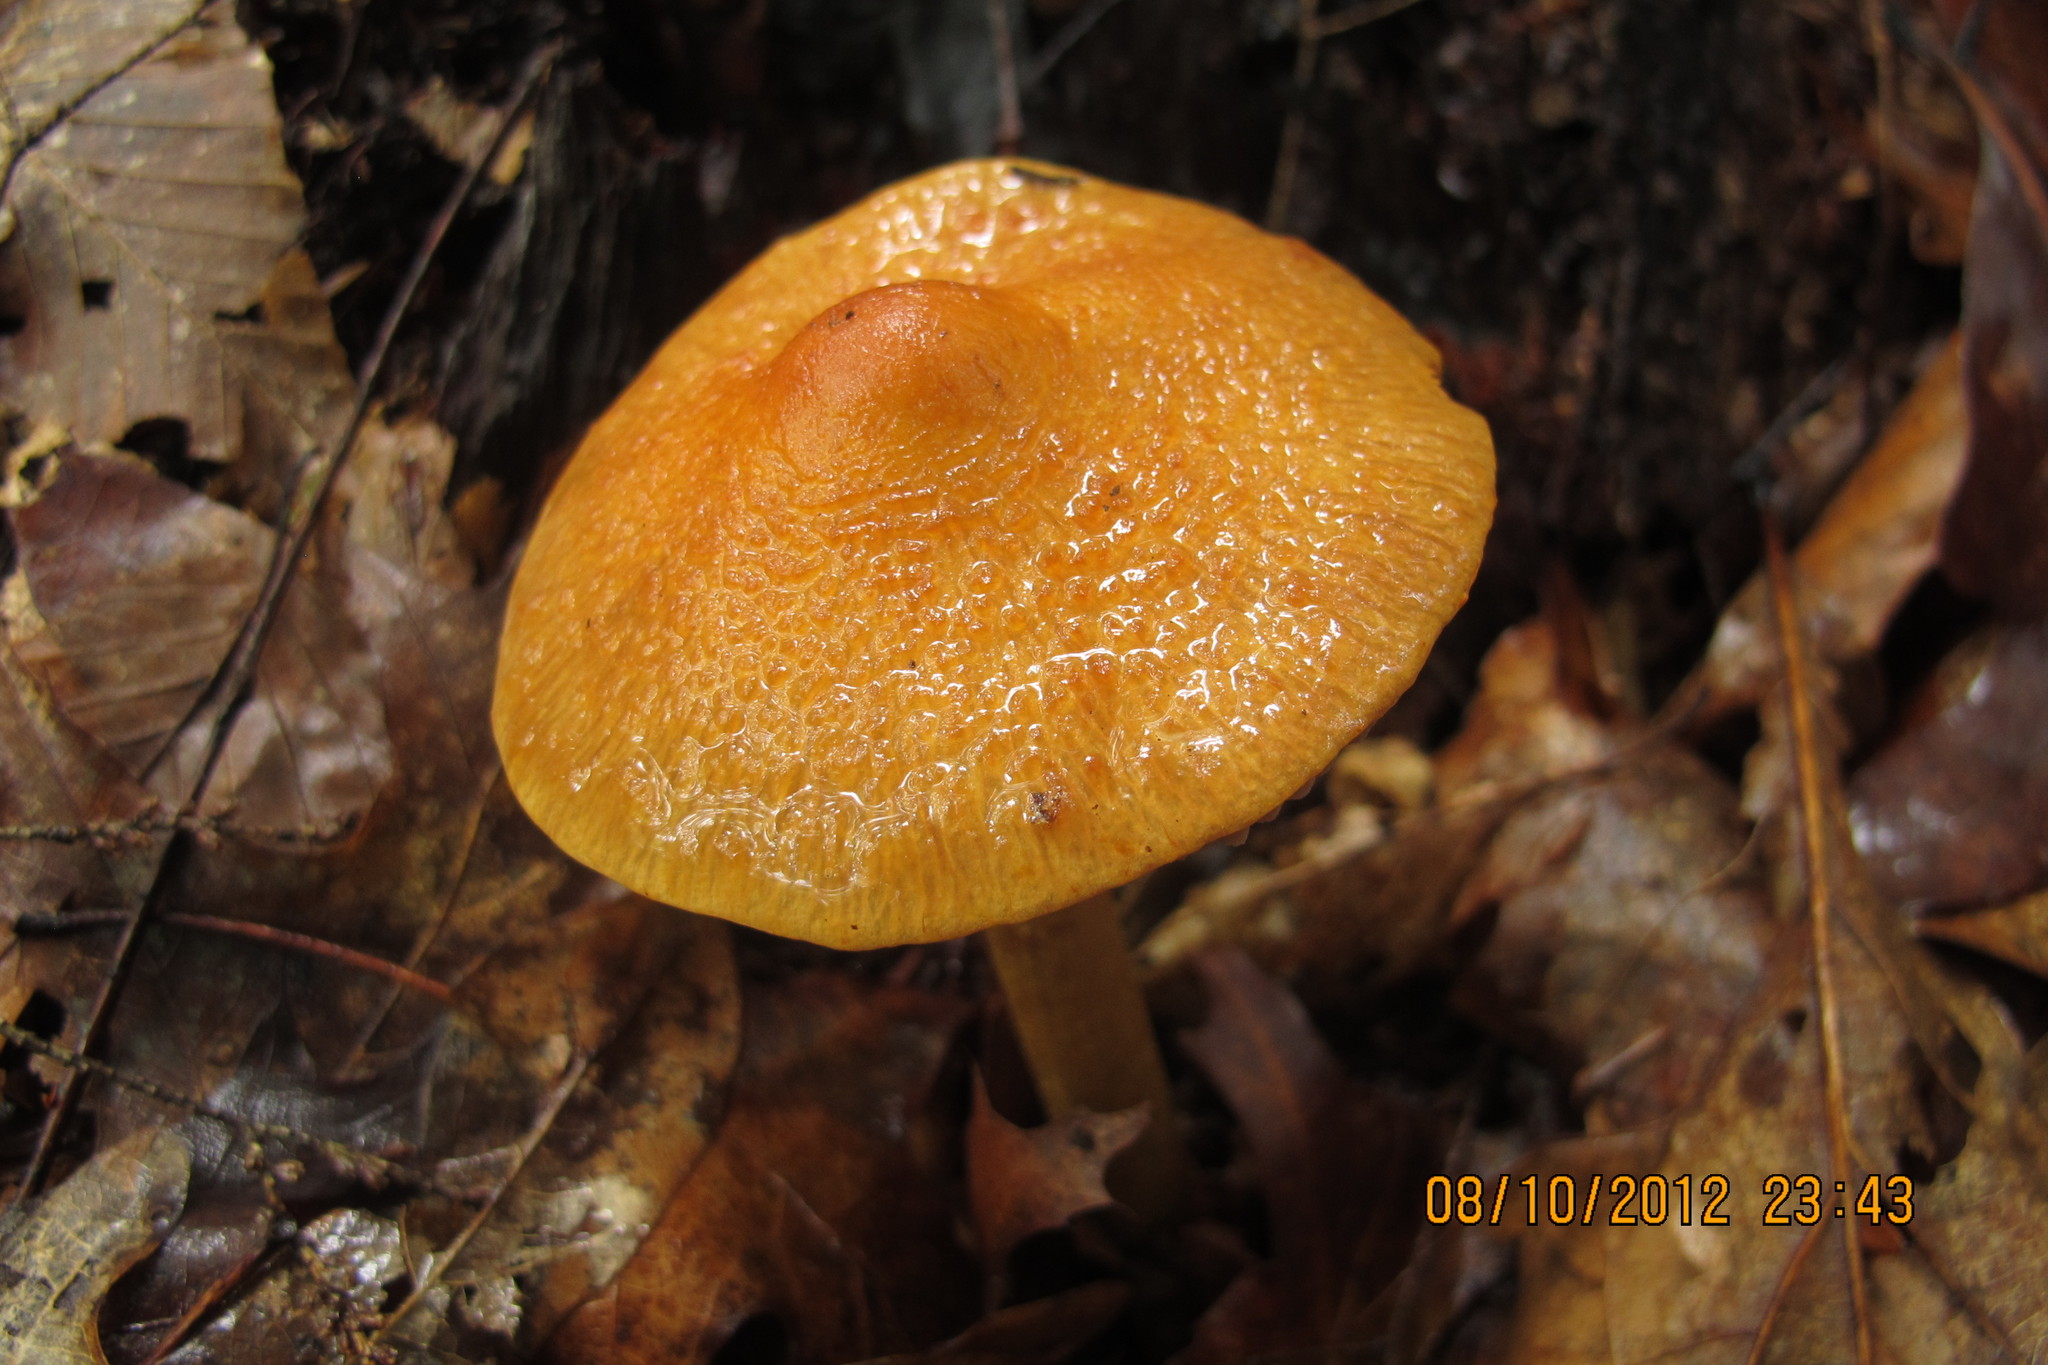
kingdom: Fungi
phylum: Basidiomycota
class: Agaricomycetes
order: Agaricales
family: Cortinariaceae
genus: Cortinarius
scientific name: Cortinarius corrugatus
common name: Wrinkled cortinarius
